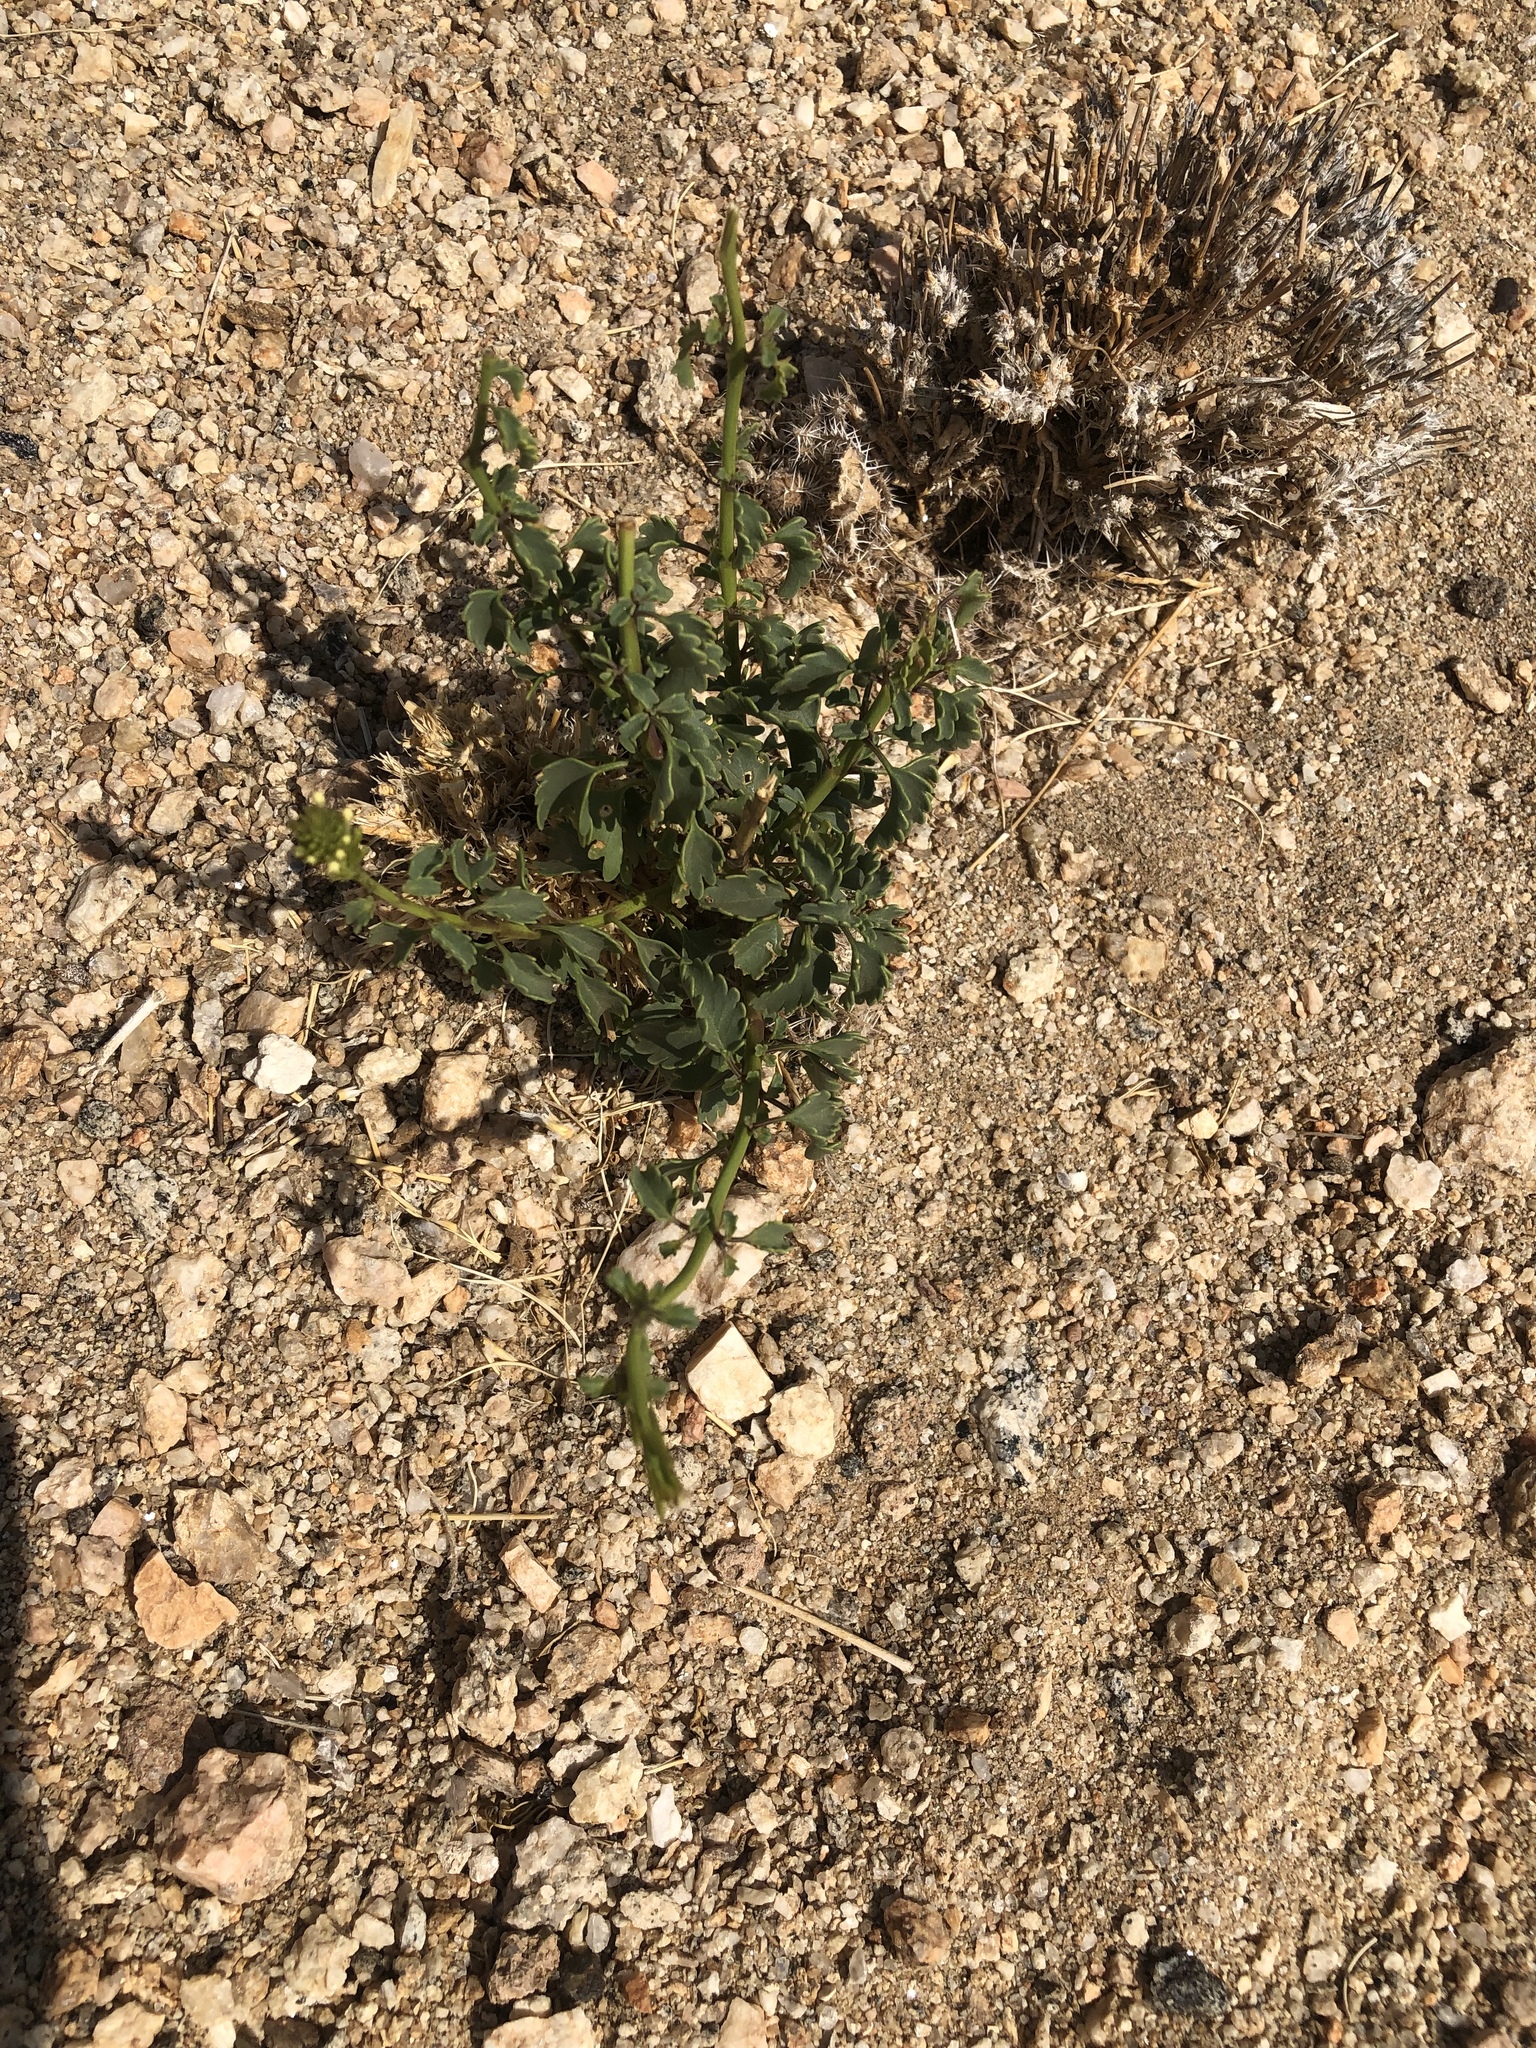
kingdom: Plantae
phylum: Tracheophyta
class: Magnoliopsida
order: Lamiales
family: Verbenaceae
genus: Chascanum
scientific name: Chascanum garipense
